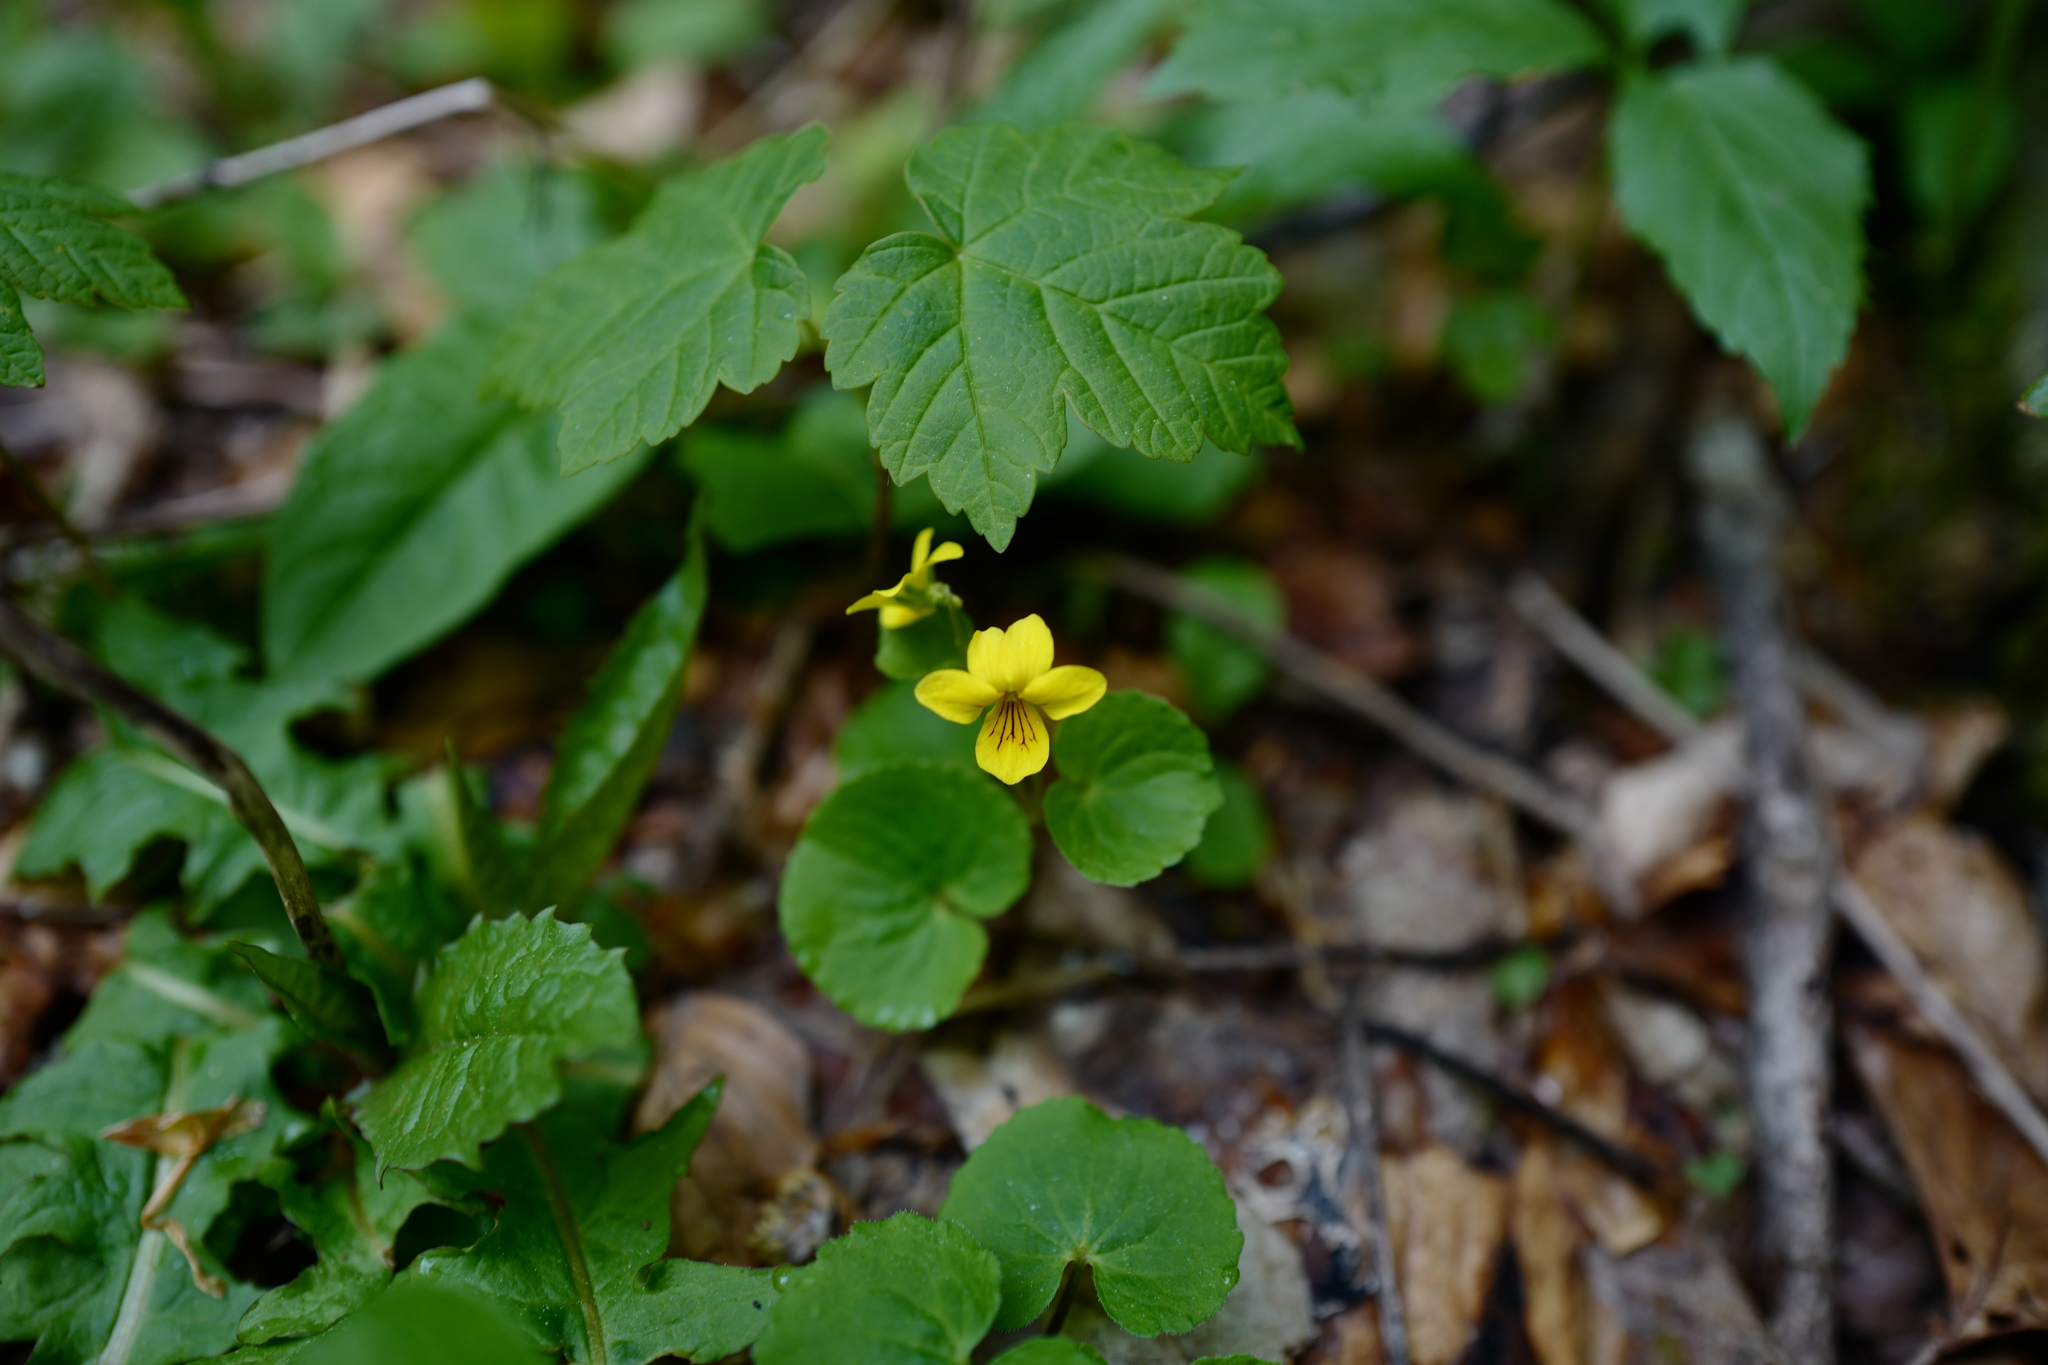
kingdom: Plantae
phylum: Tracheophyta
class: Magnoliopsida
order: Malpighiales
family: Violaceae
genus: Viola
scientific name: Viola biflora
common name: Alpine yellow violet
